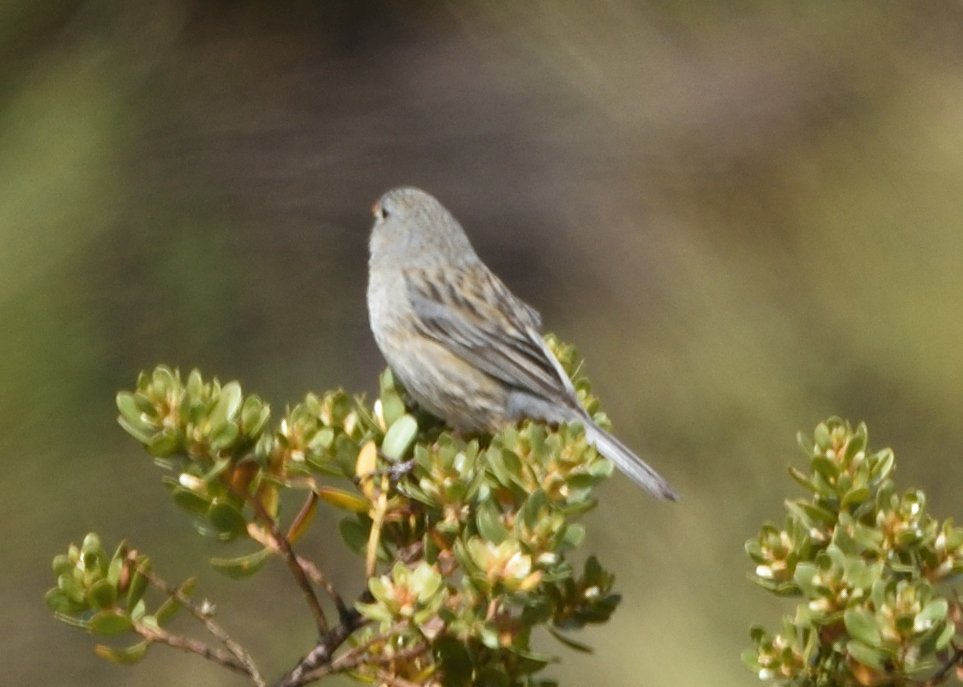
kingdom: Animalia
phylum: Chordata
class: Aves
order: Passeriformes
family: Thraupidae
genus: Catamenia
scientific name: Catamenia inornata
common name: Plain-colored seedeater
